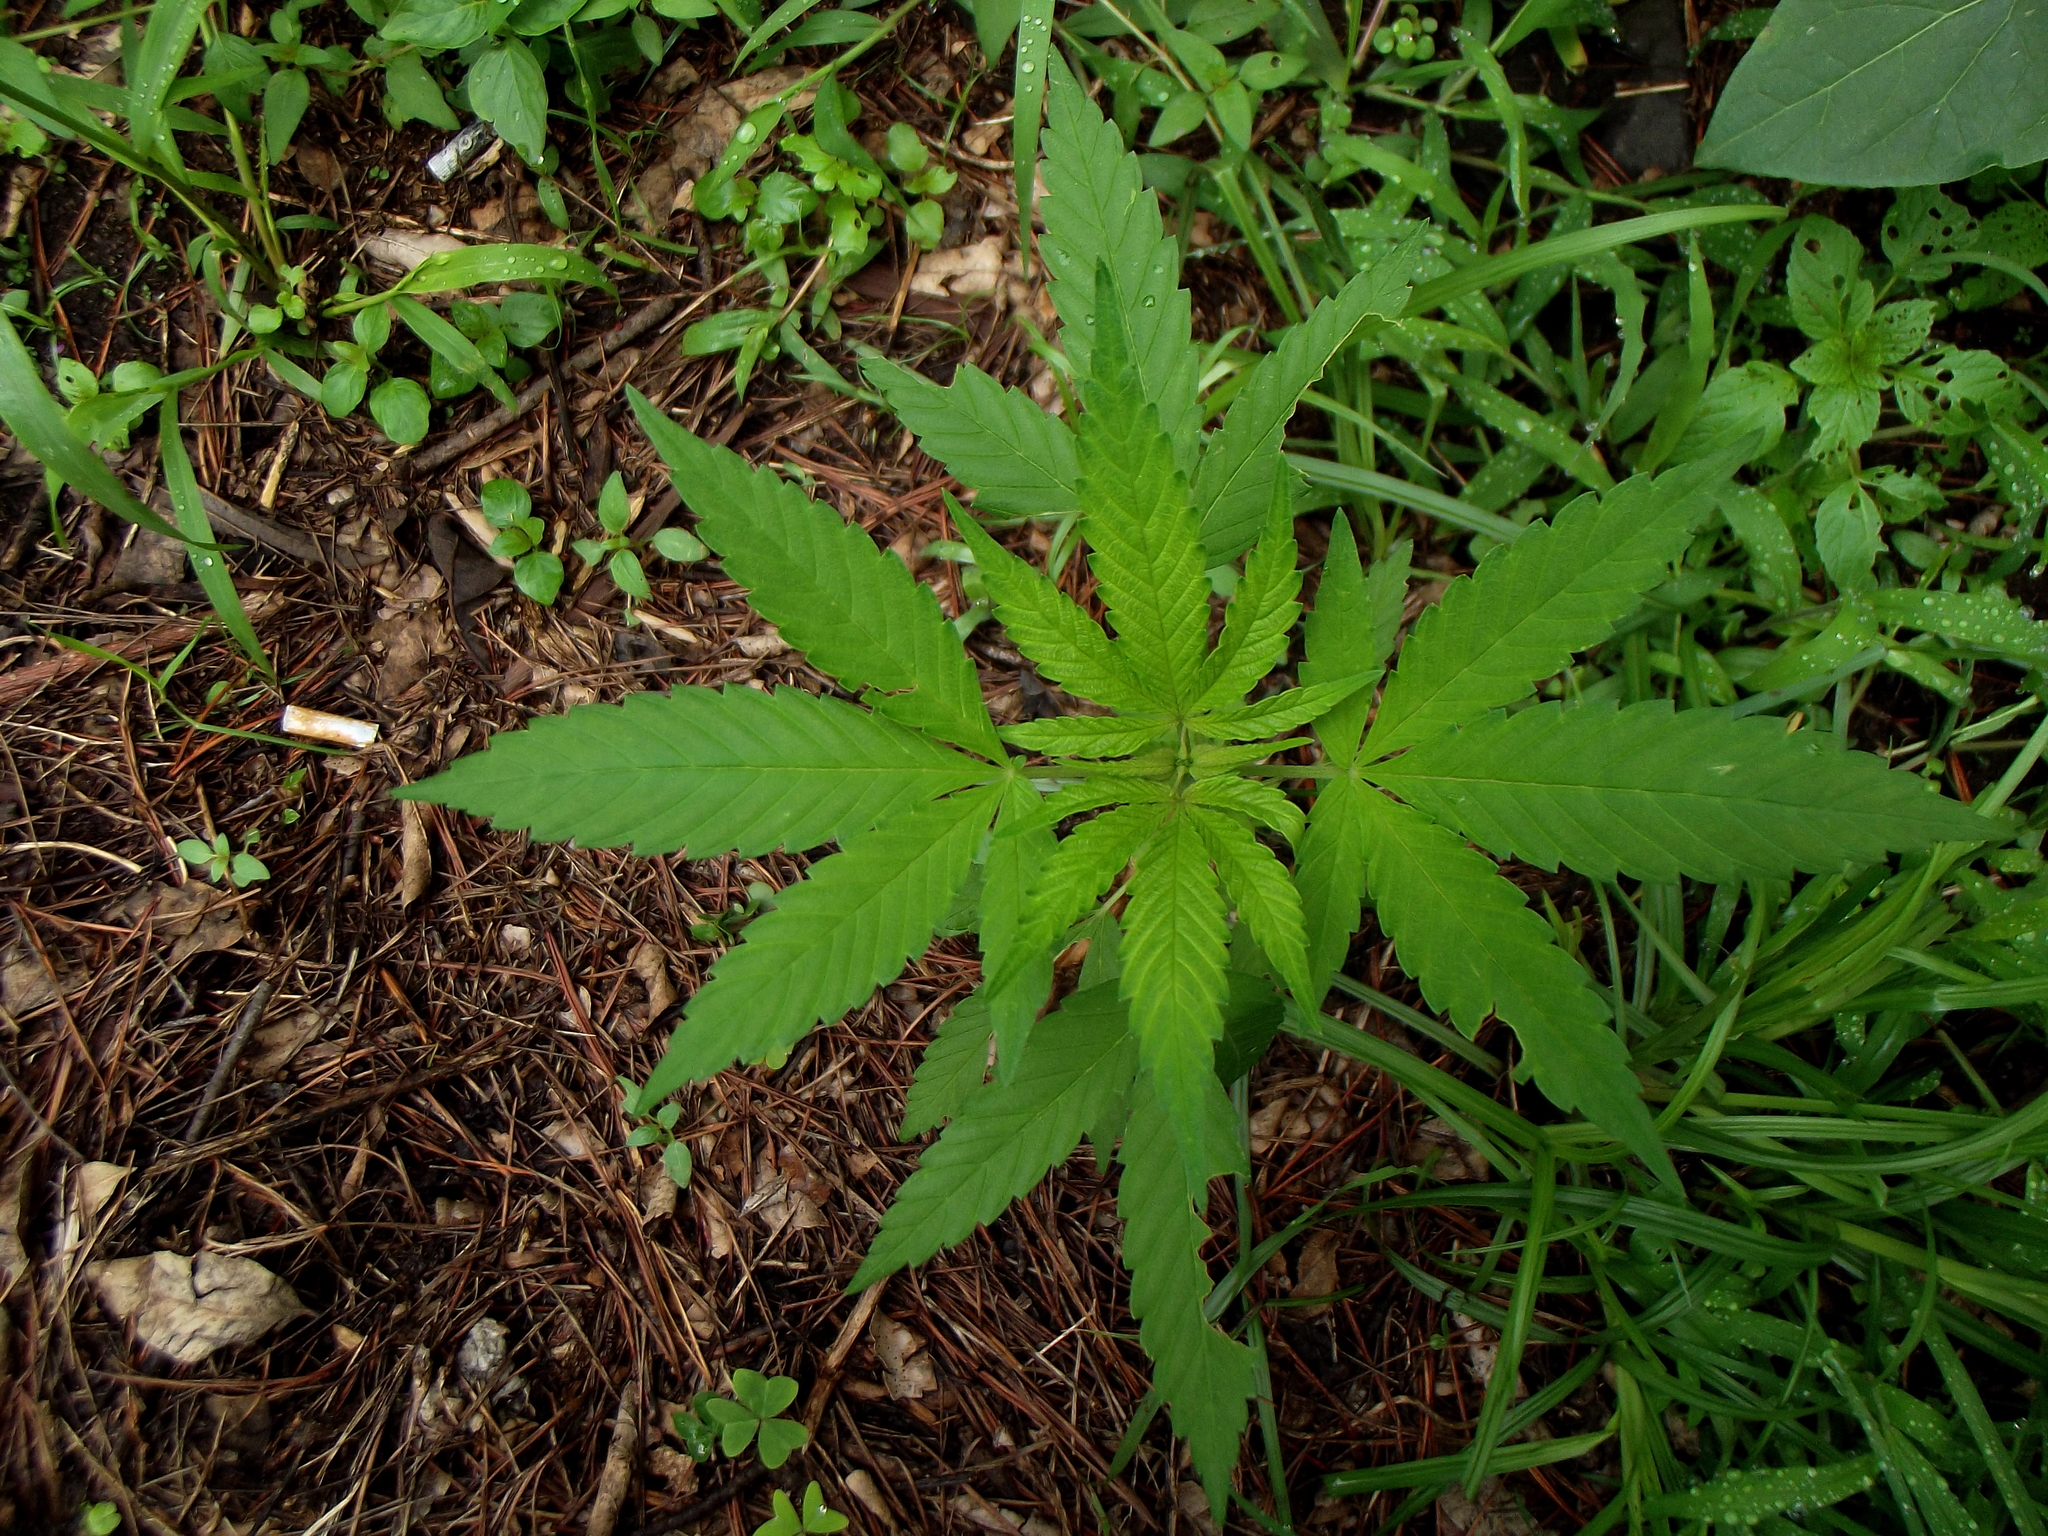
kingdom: Plantae
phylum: Tracheophyta
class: Magnoliopsida
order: Rosales
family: Cannabaceae
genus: Cannabis
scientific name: Cannabis sativa
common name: Hemp
